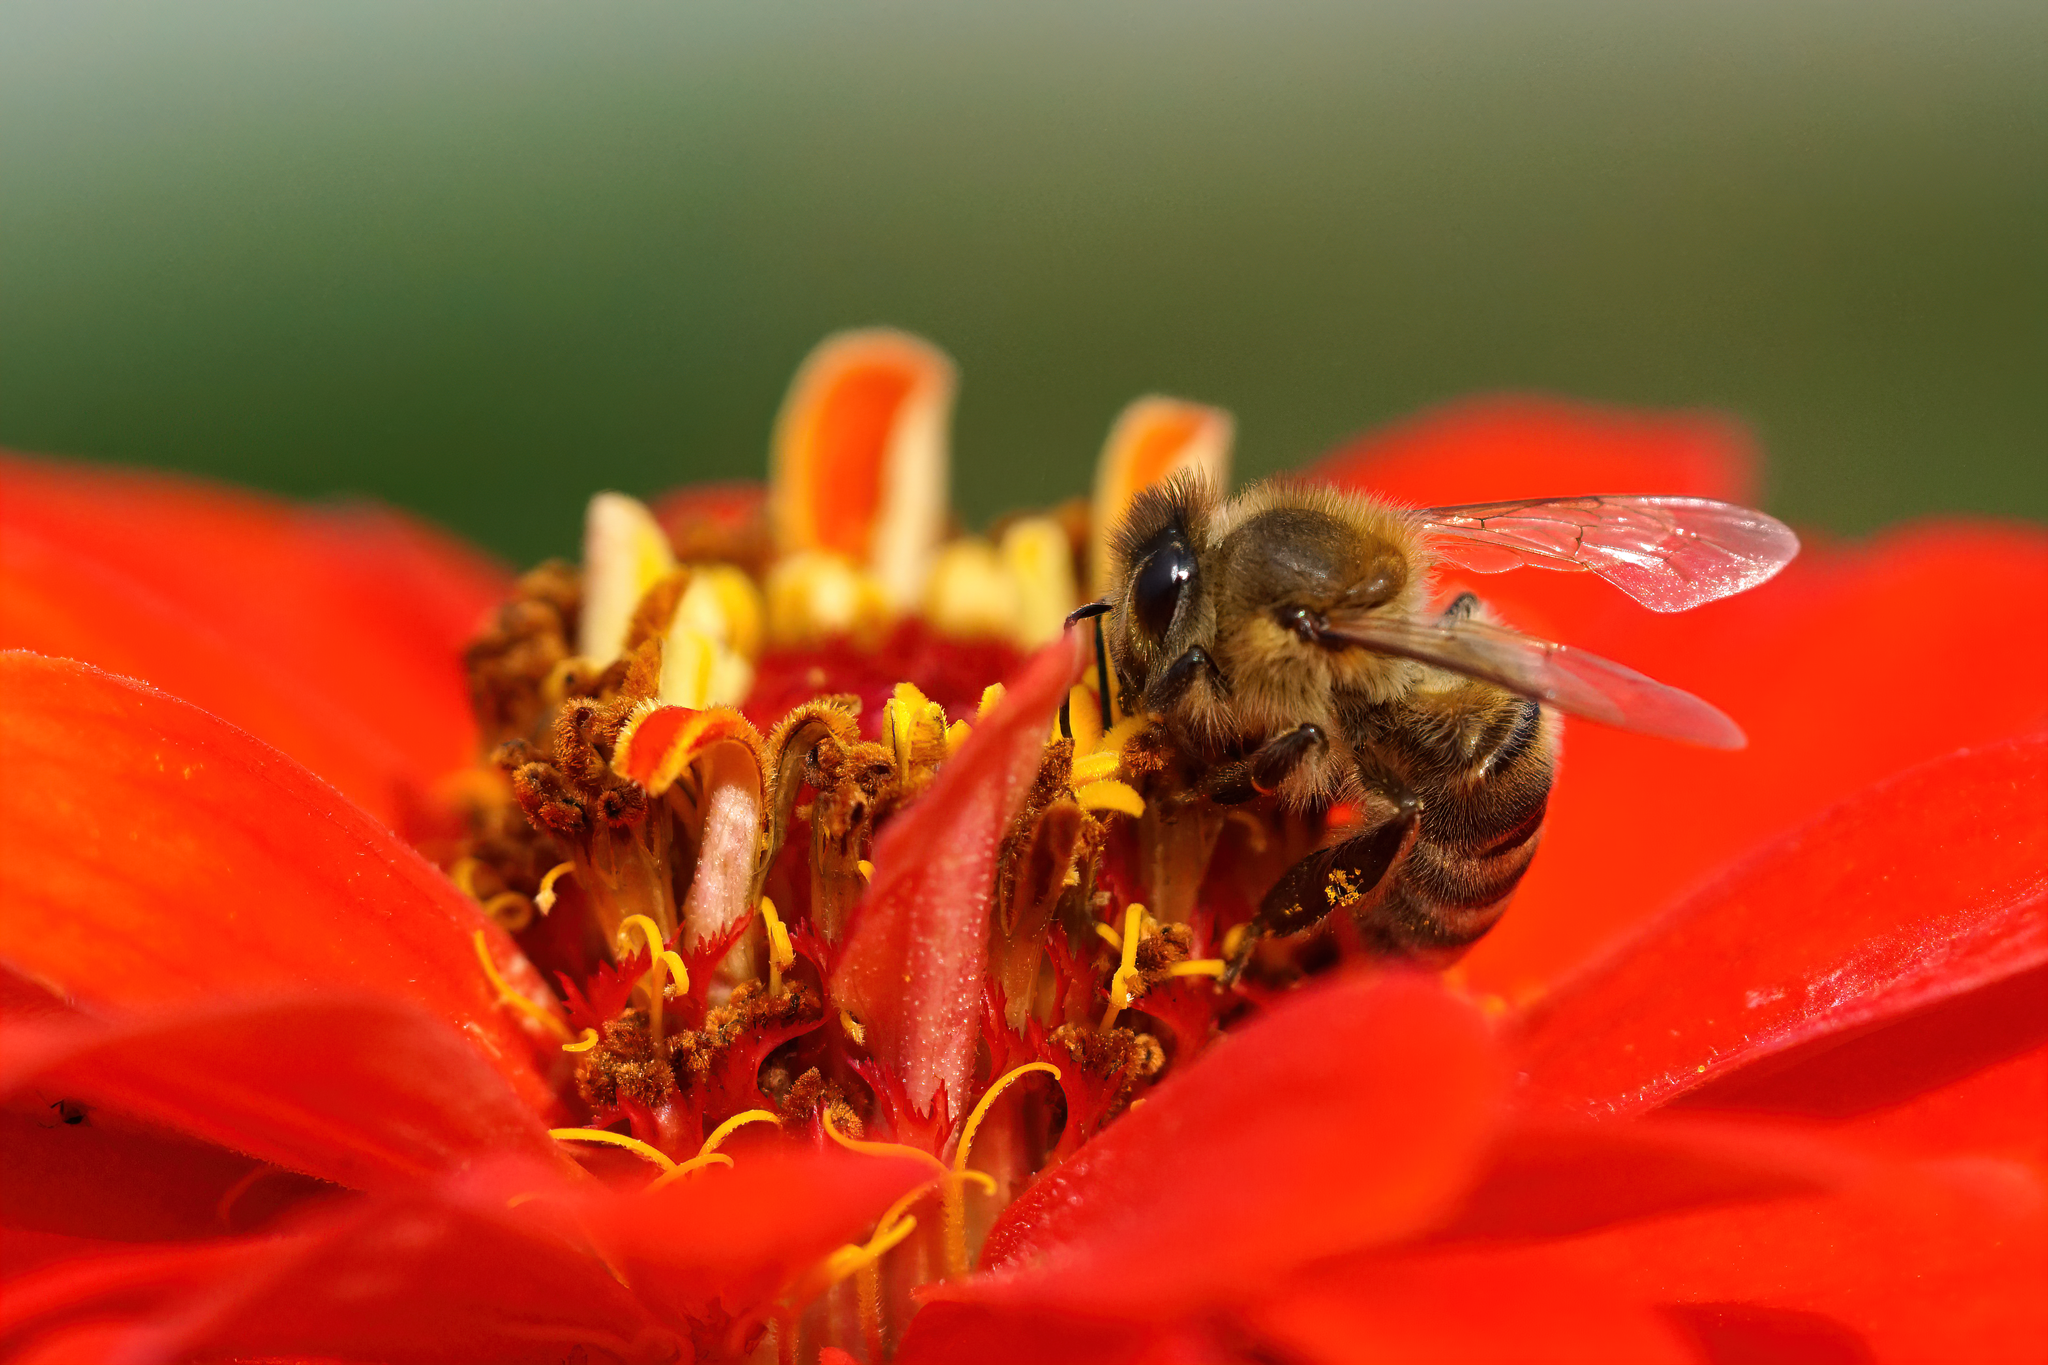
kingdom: Animalia
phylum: Arthropoda
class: Insecta
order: Hymenoptera
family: Apidae
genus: Apis
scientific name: Apis mellifera
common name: Honey bee
